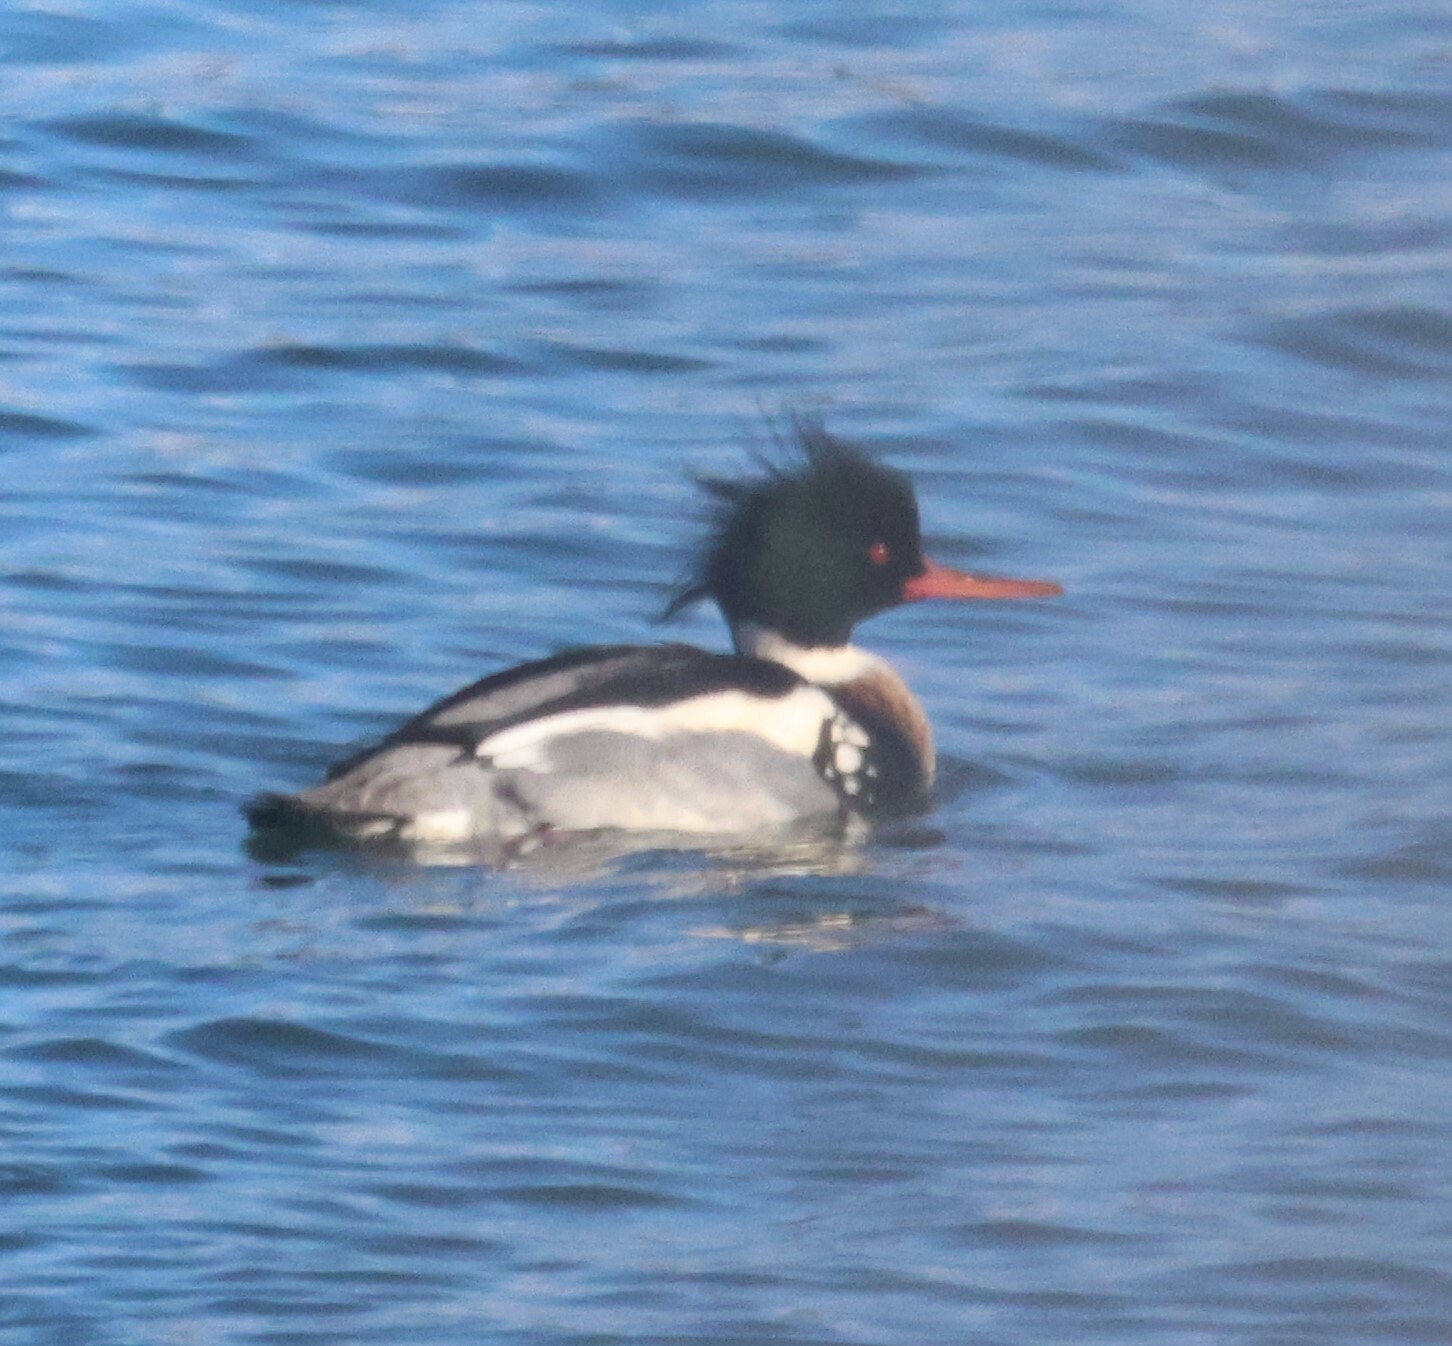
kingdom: Animalia
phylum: Chordata
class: Aves
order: Anseriformes
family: Anatidae
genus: Mergus
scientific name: Mergus serrator
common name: Red-breasted merganser
